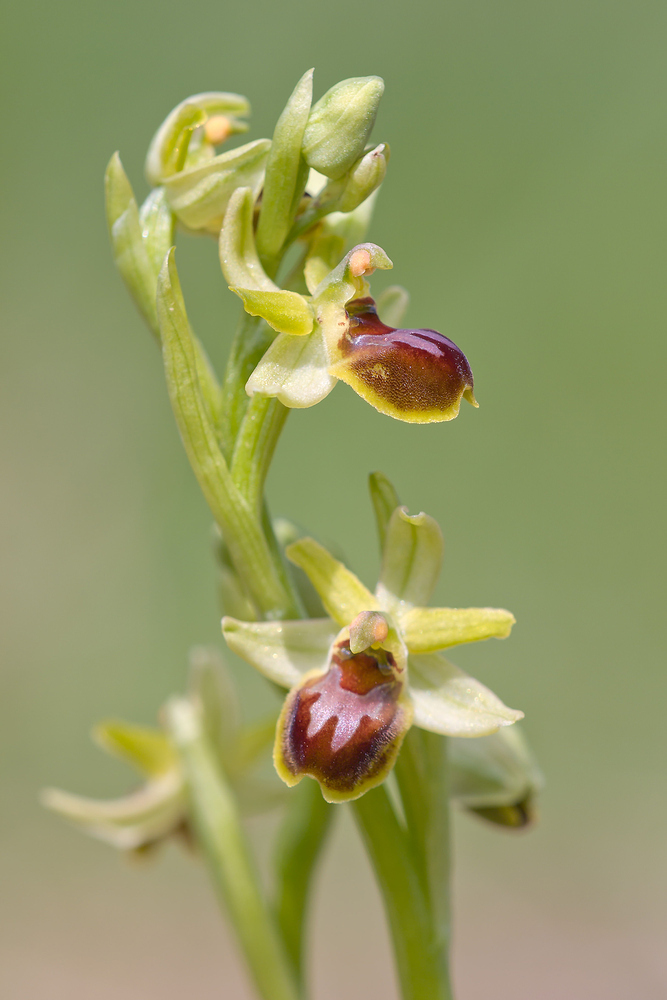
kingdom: Plantae
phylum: Tracheophyta
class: Liliopsida
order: Asparagales
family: Orchidaceae
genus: Ophrys
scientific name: Ophrys araneola
